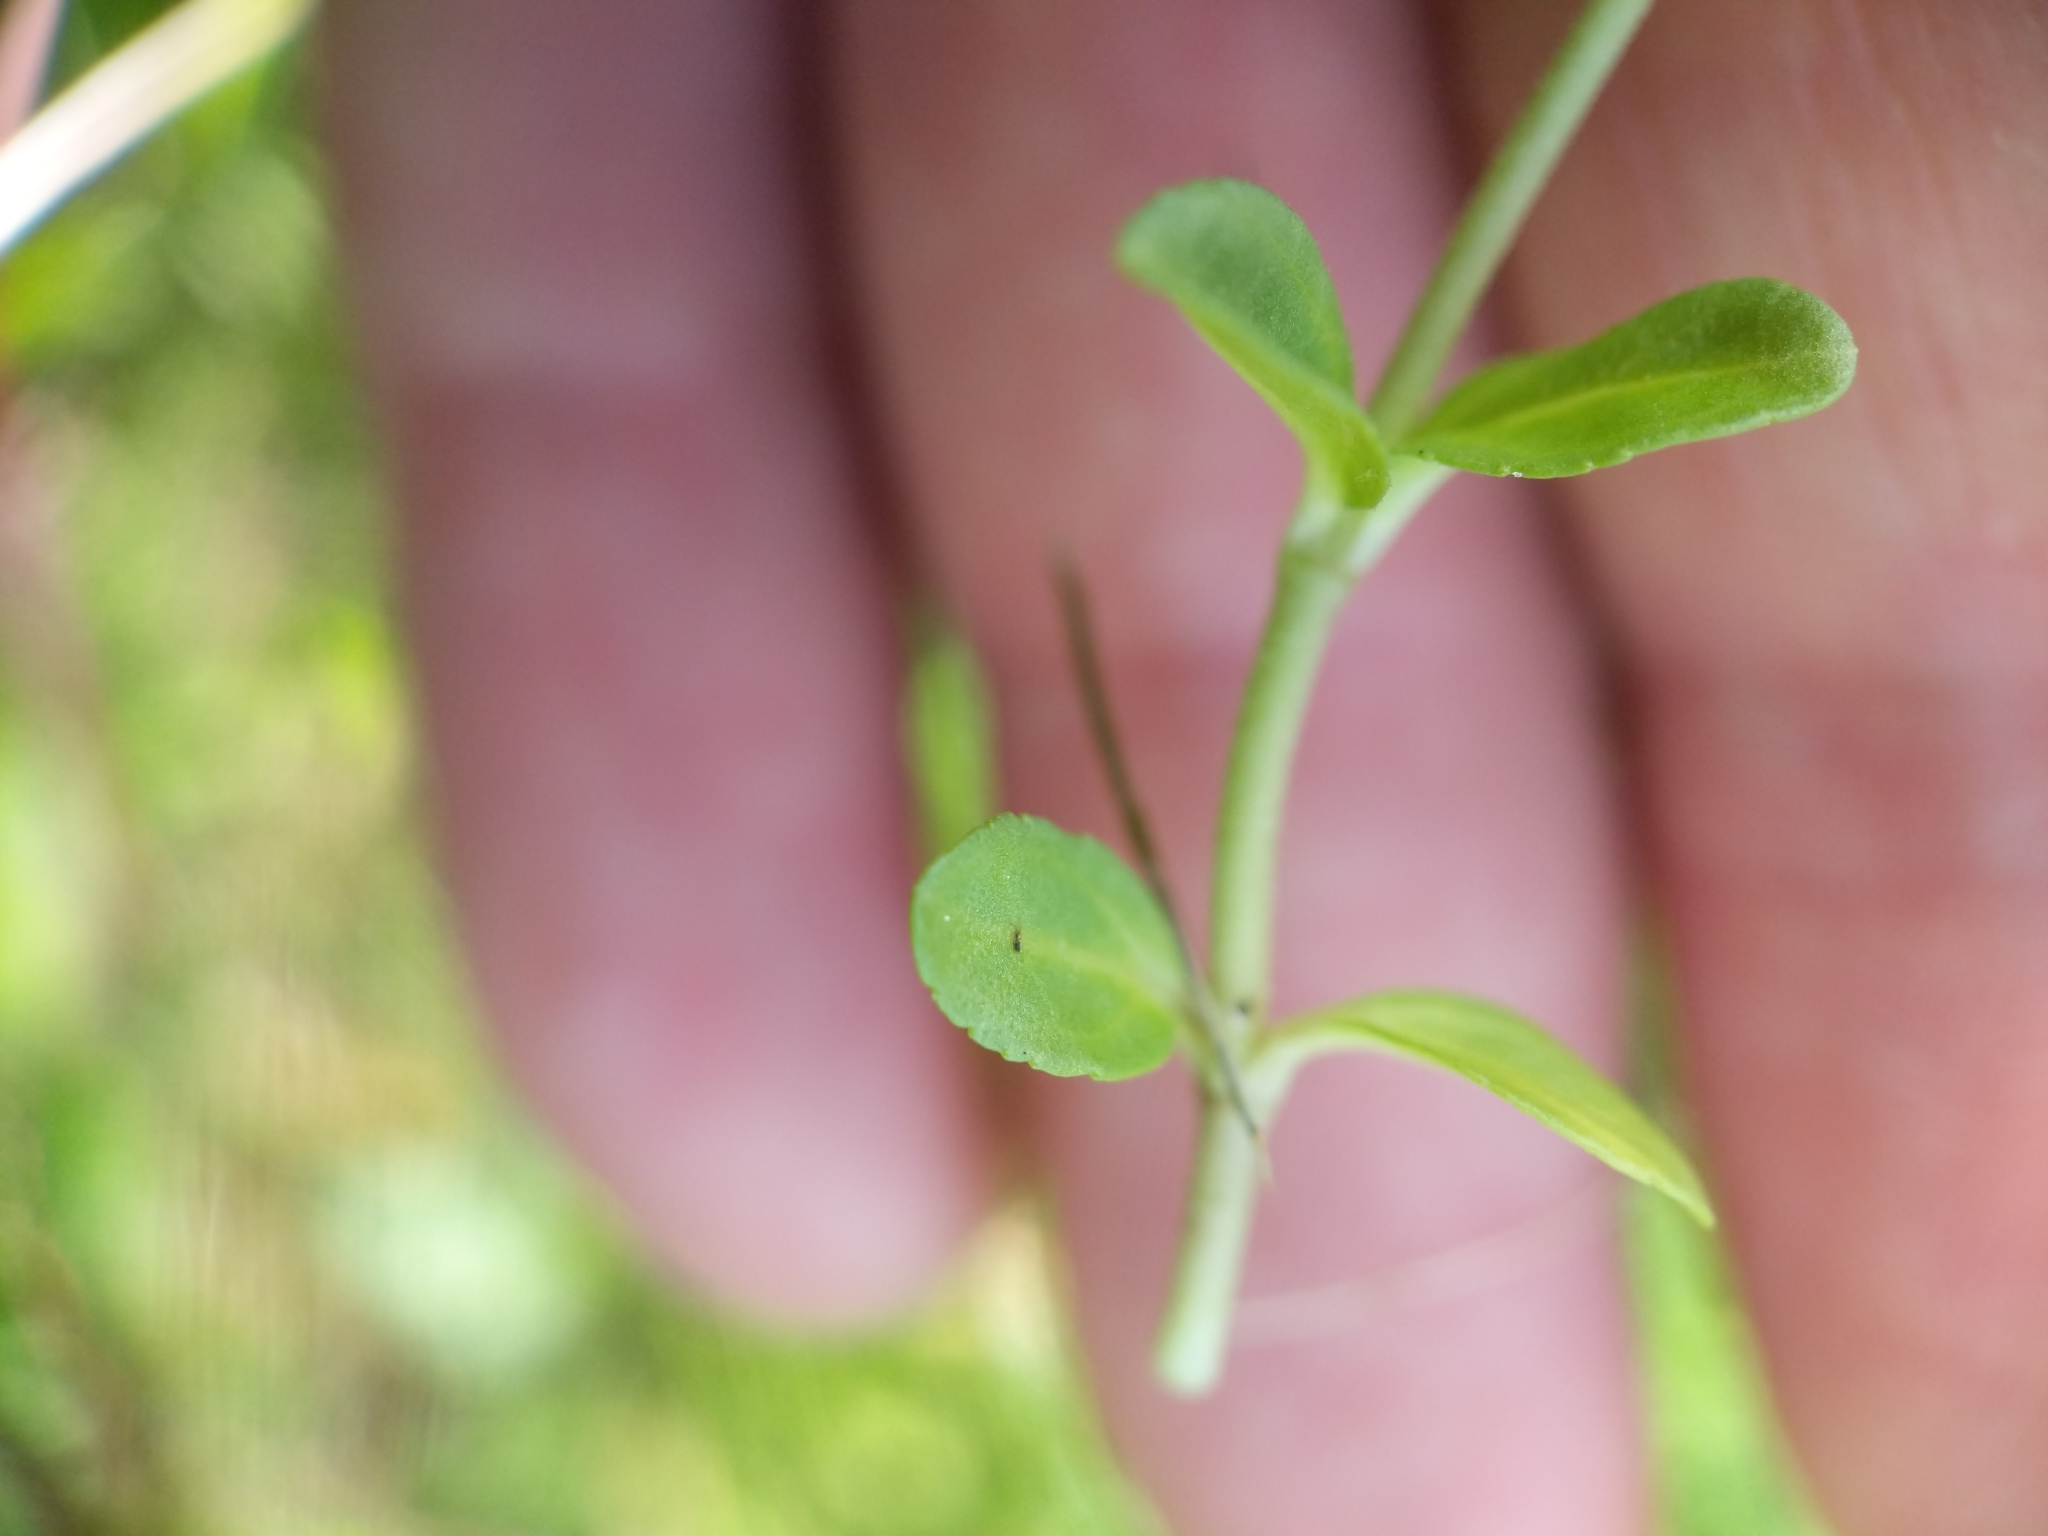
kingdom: Plantae
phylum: Tracheophyta
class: Magnoliopsida
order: Lamiales
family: Plantaginaceae
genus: Veronica
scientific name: Veronica serpyllifolia
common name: Thyme-leaved speedwell
